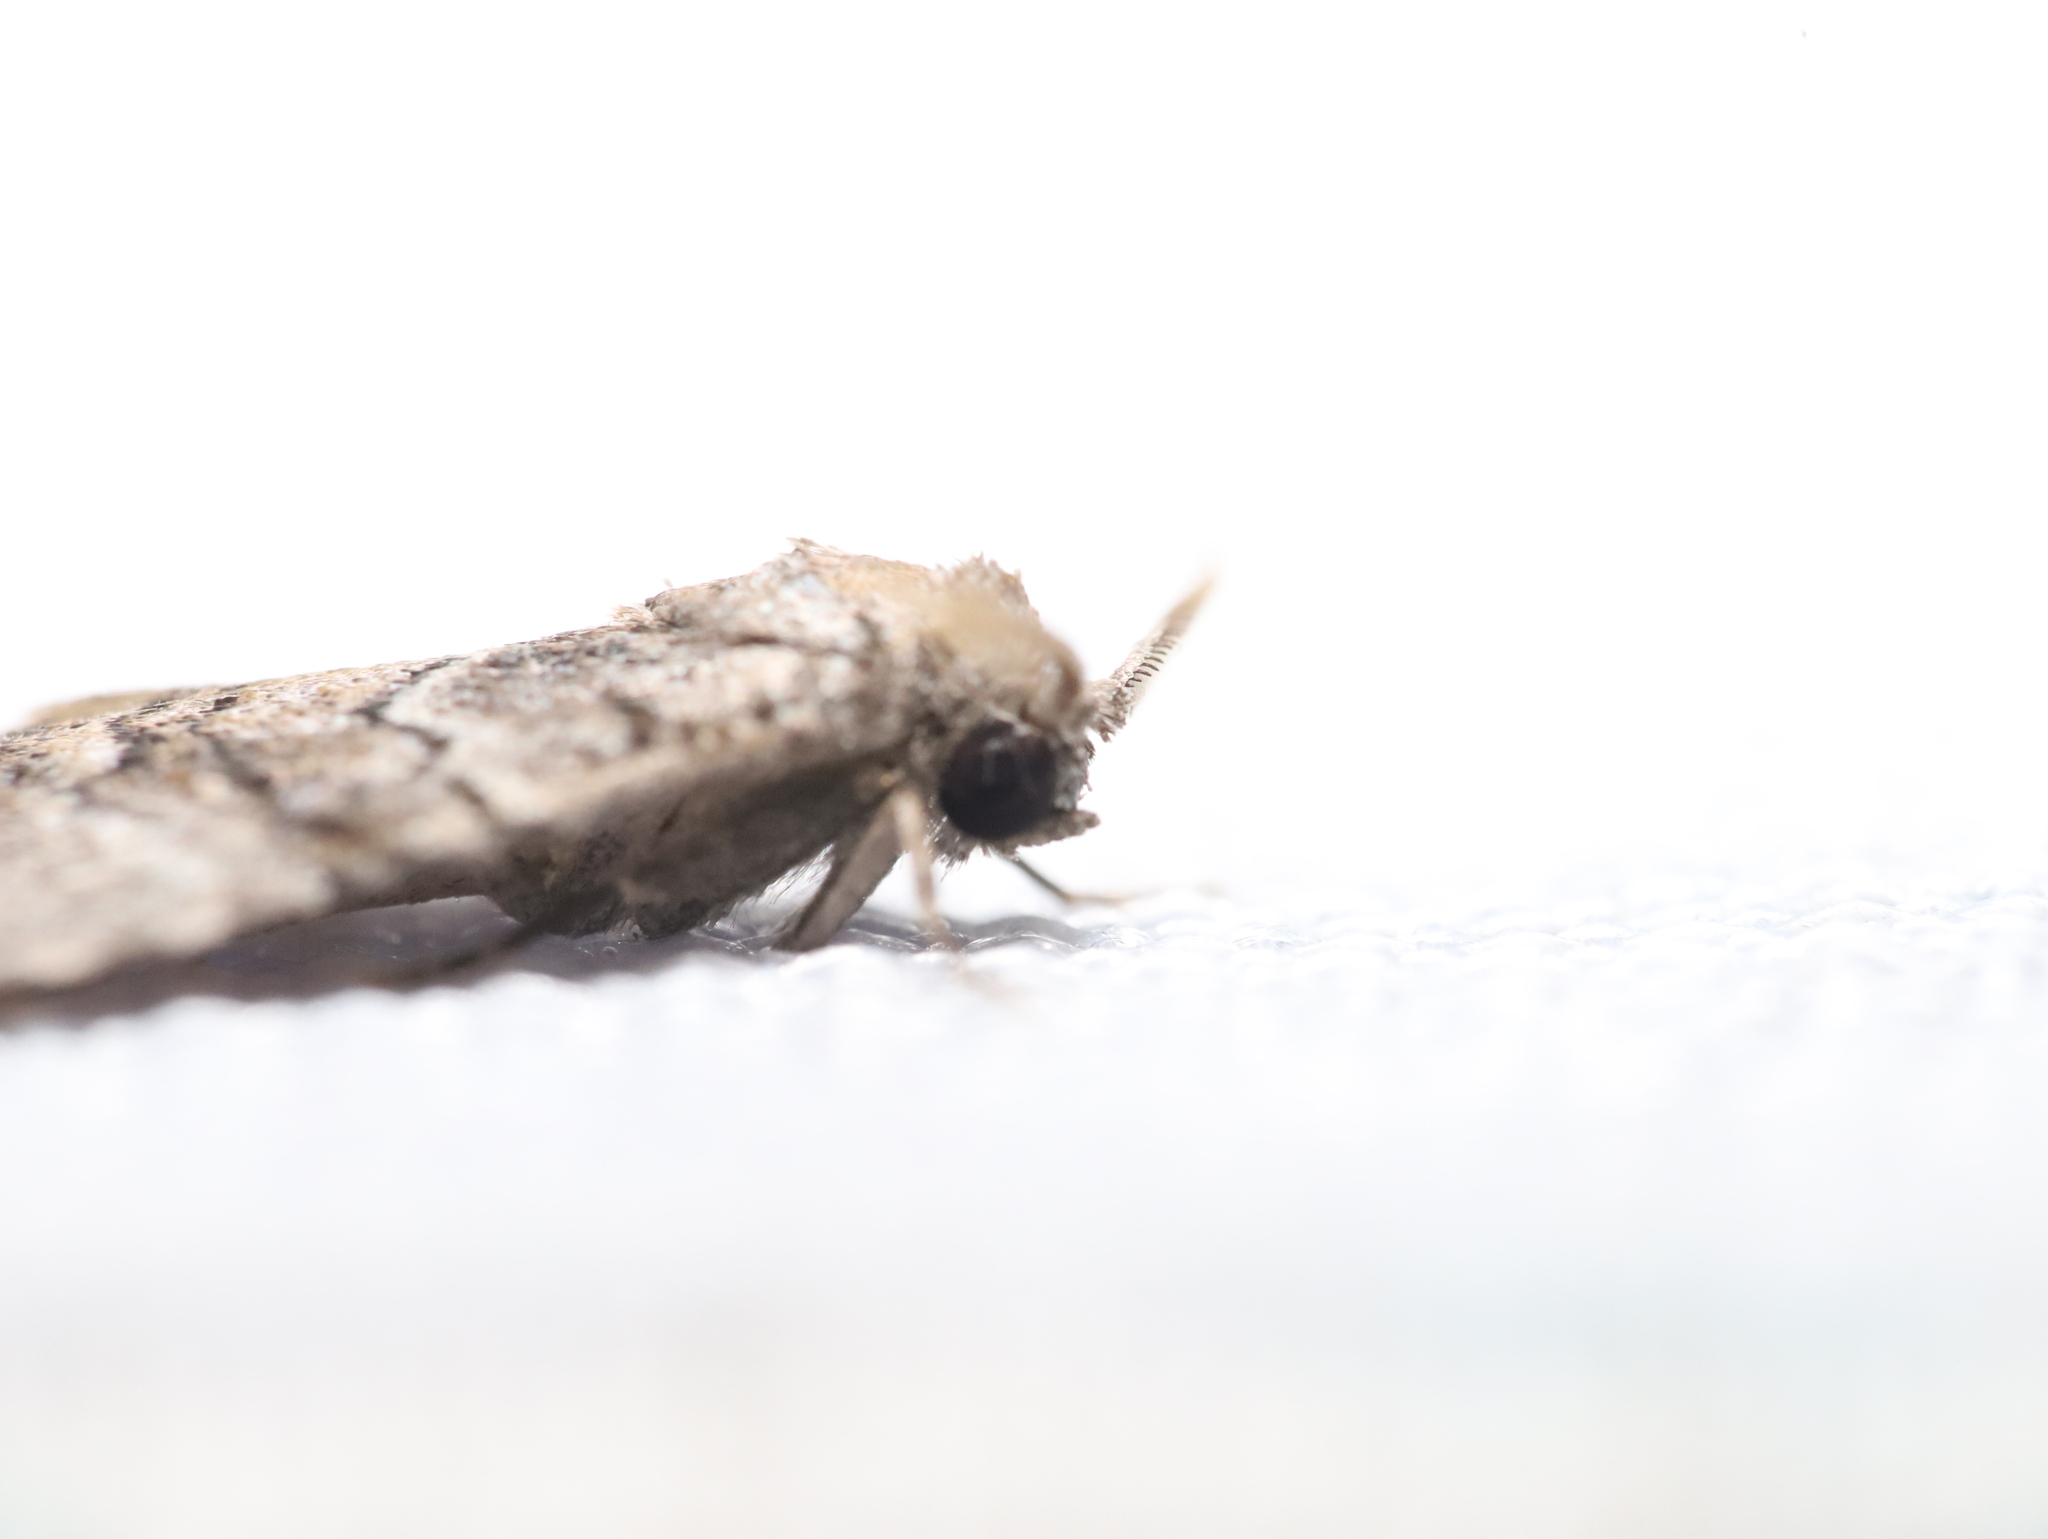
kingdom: Animalia
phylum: Arthropoda
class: Insecta
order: Lepidoptera
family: Nolidae
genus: Uraba
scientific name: Uraba lugens
